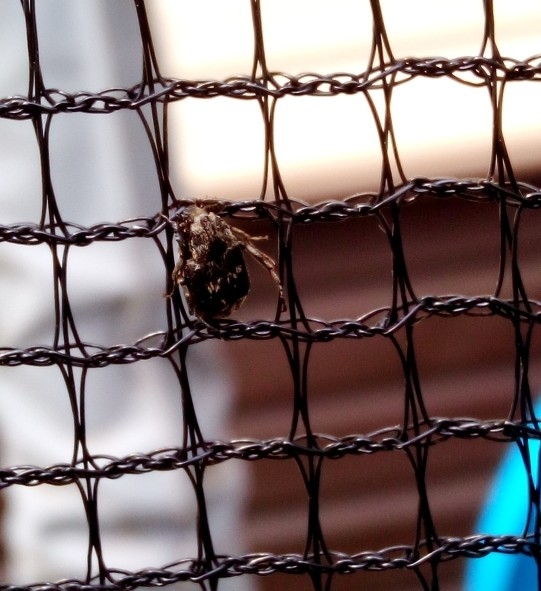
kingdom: Animalia
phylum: Arthropoda
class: Insecta
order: Coleoptera
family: Scarabaeidae
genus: Valgus
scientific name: Valgus hemipterus
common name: Bug flower chafer
